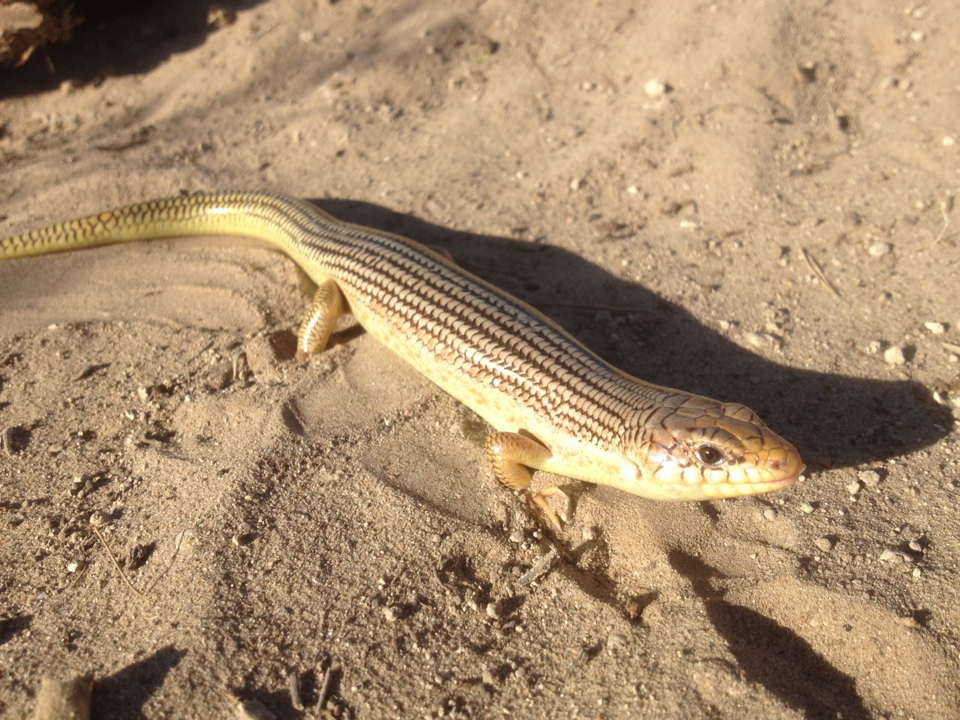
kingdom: Animalia
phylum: Chordata
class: Squamata
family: Scincidae
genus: Plestiodon
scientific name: Plestiodon obsoletus
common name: Great plains skink
